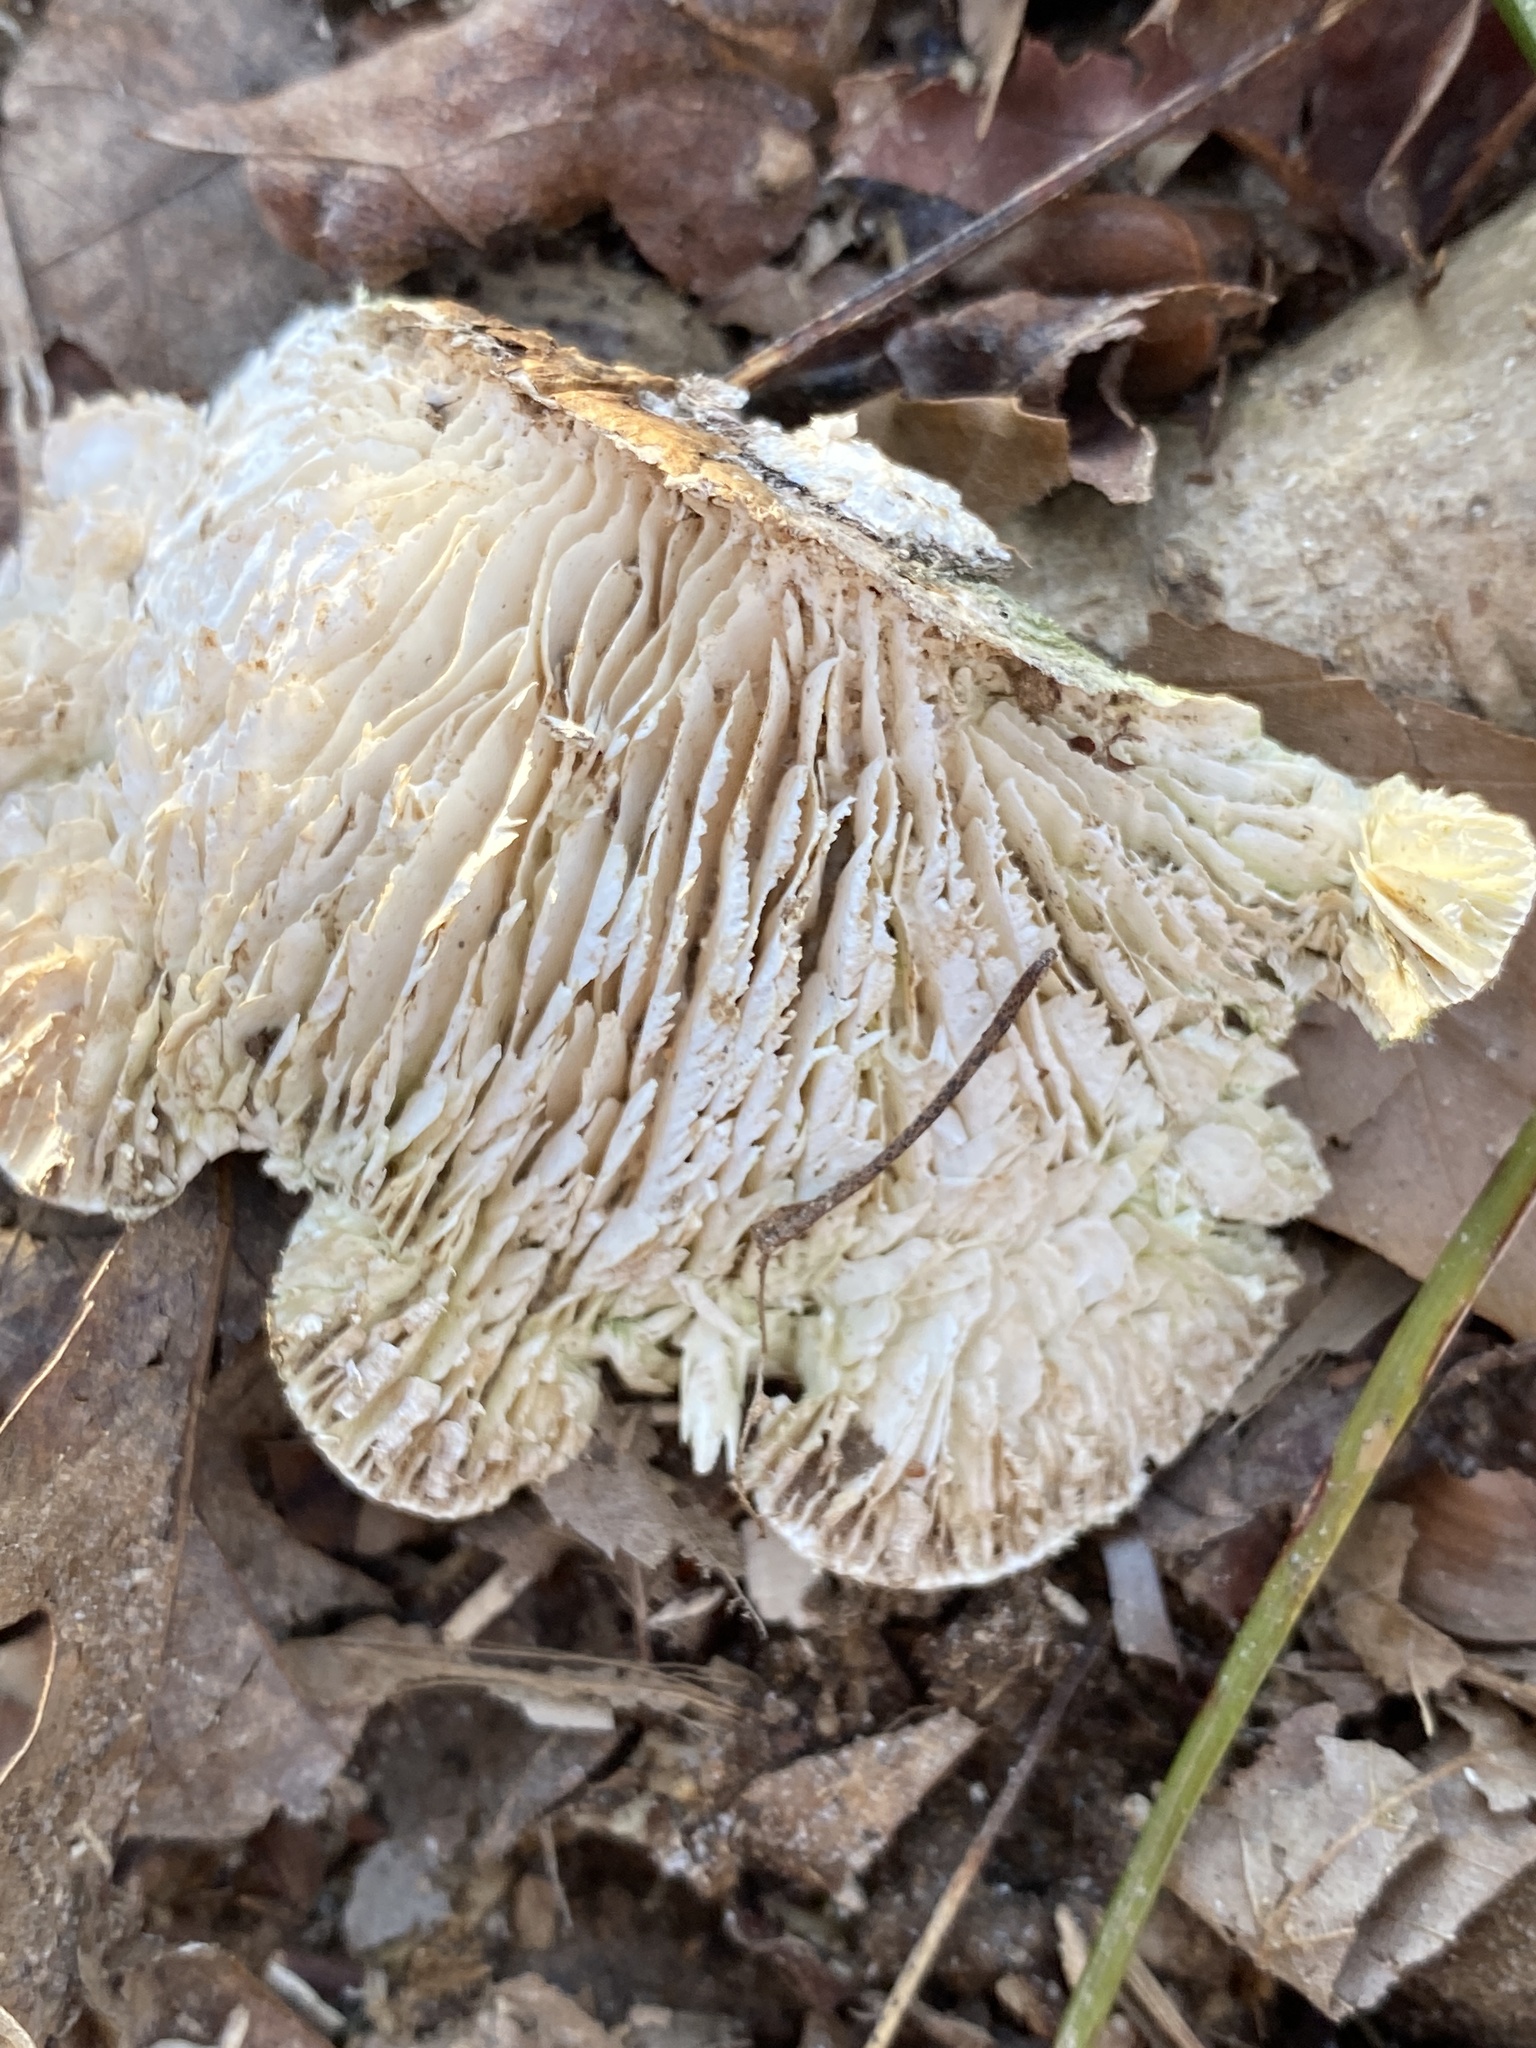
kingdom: Fungi
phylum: Basidiomycota
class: Agaricomycetes
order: Polyporales
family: Polyporaceae
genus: Lenzites
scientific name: Lenzites betulinus
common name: Birch mazegill
